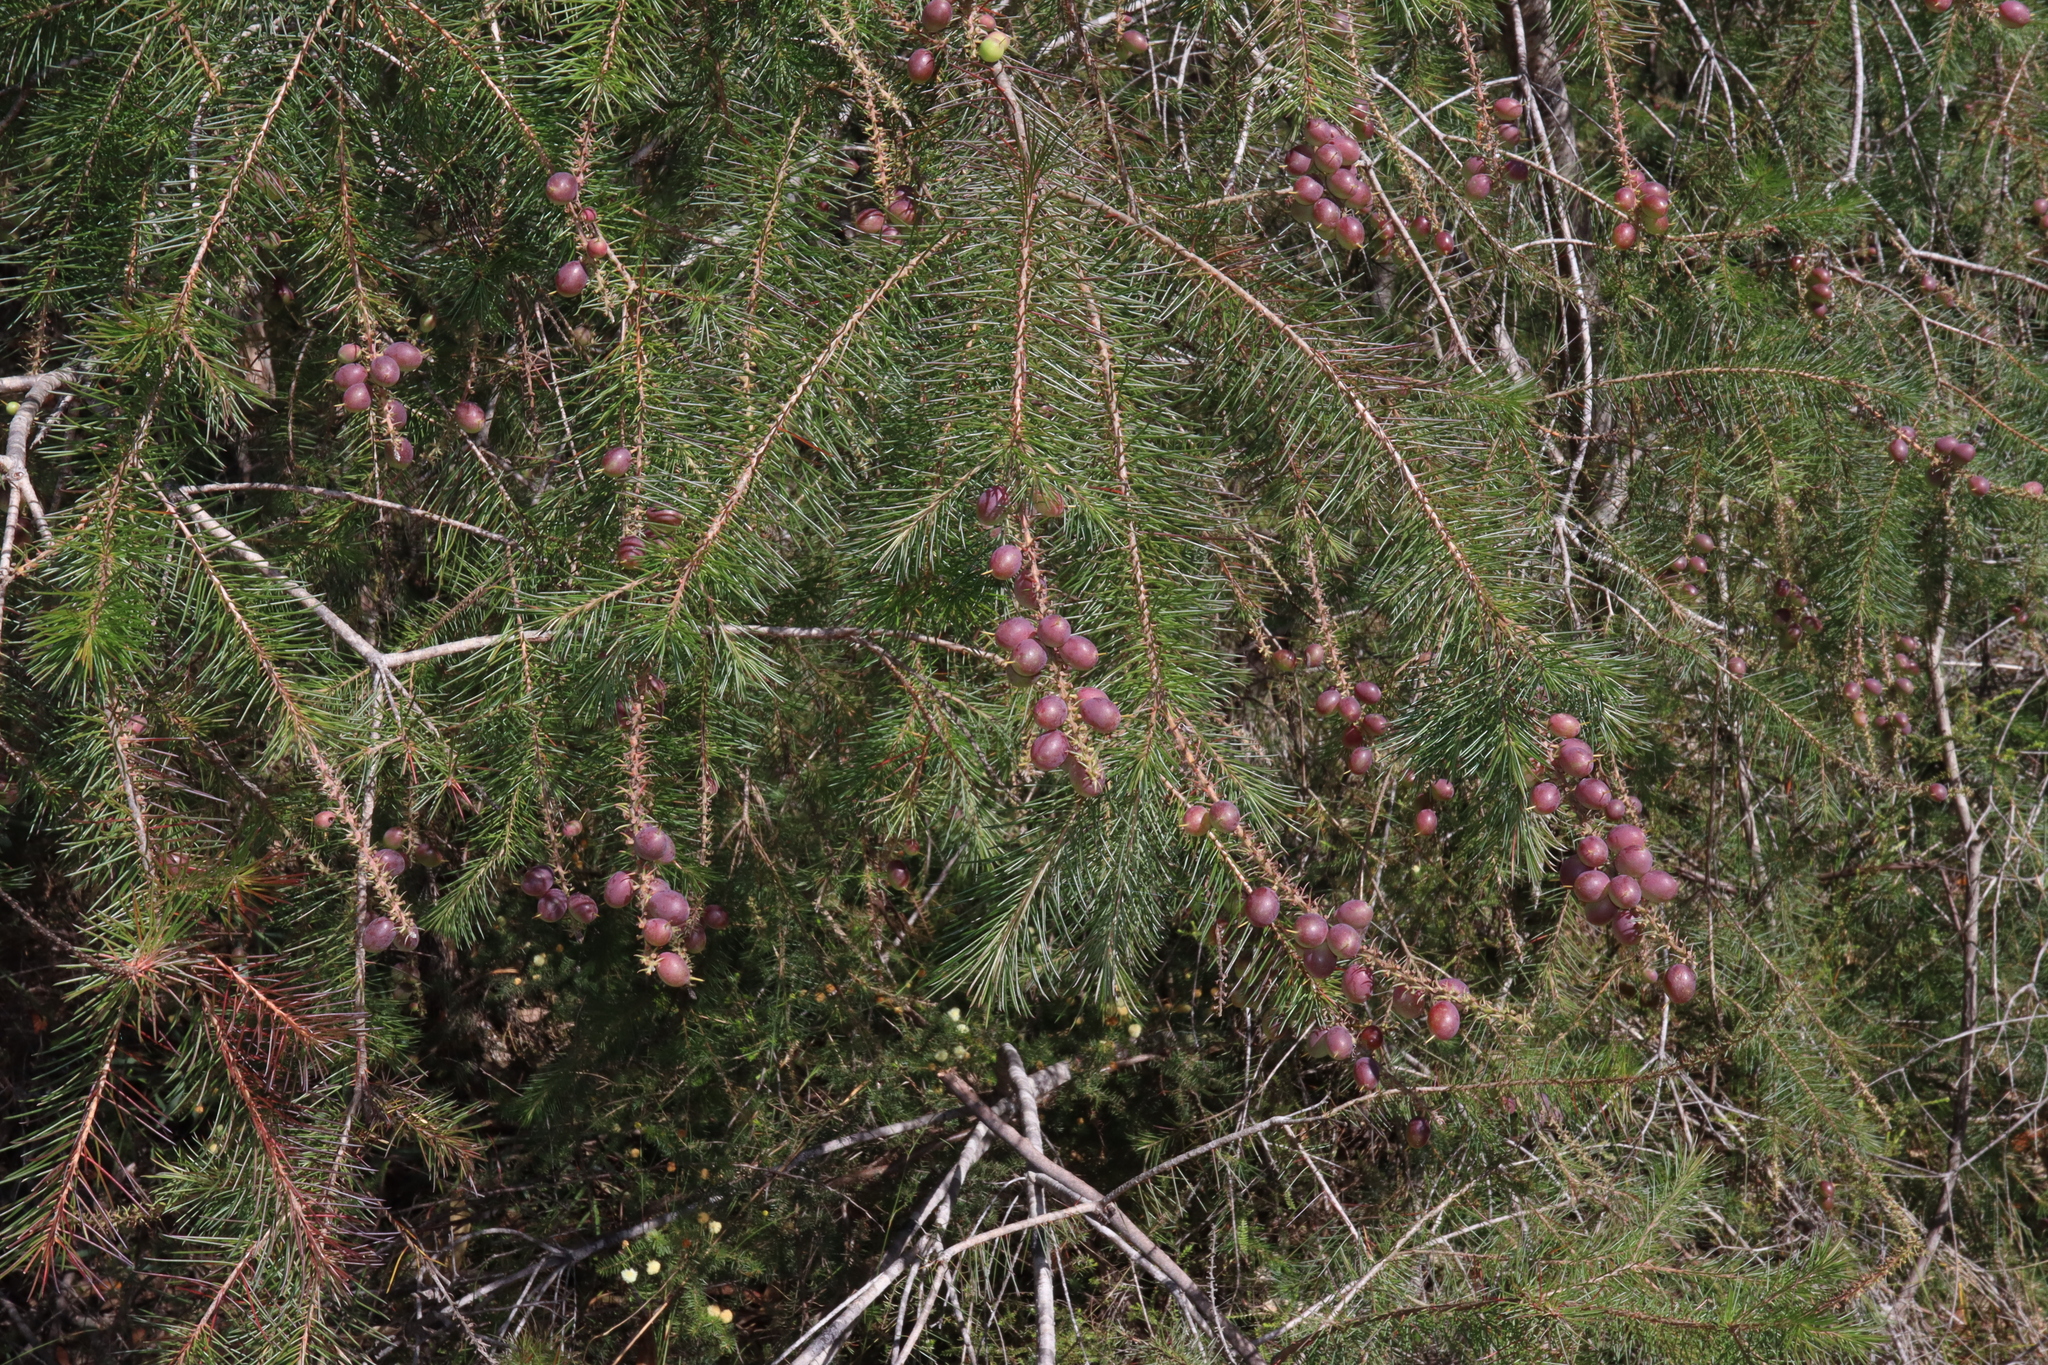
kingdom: Plantae
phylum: Tracheophyta
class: Magnoliopsida
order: Proteales
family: Proteaceae
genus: Persoonia
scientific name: Persoonia pinifolia
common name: Pine-leaf geebung
